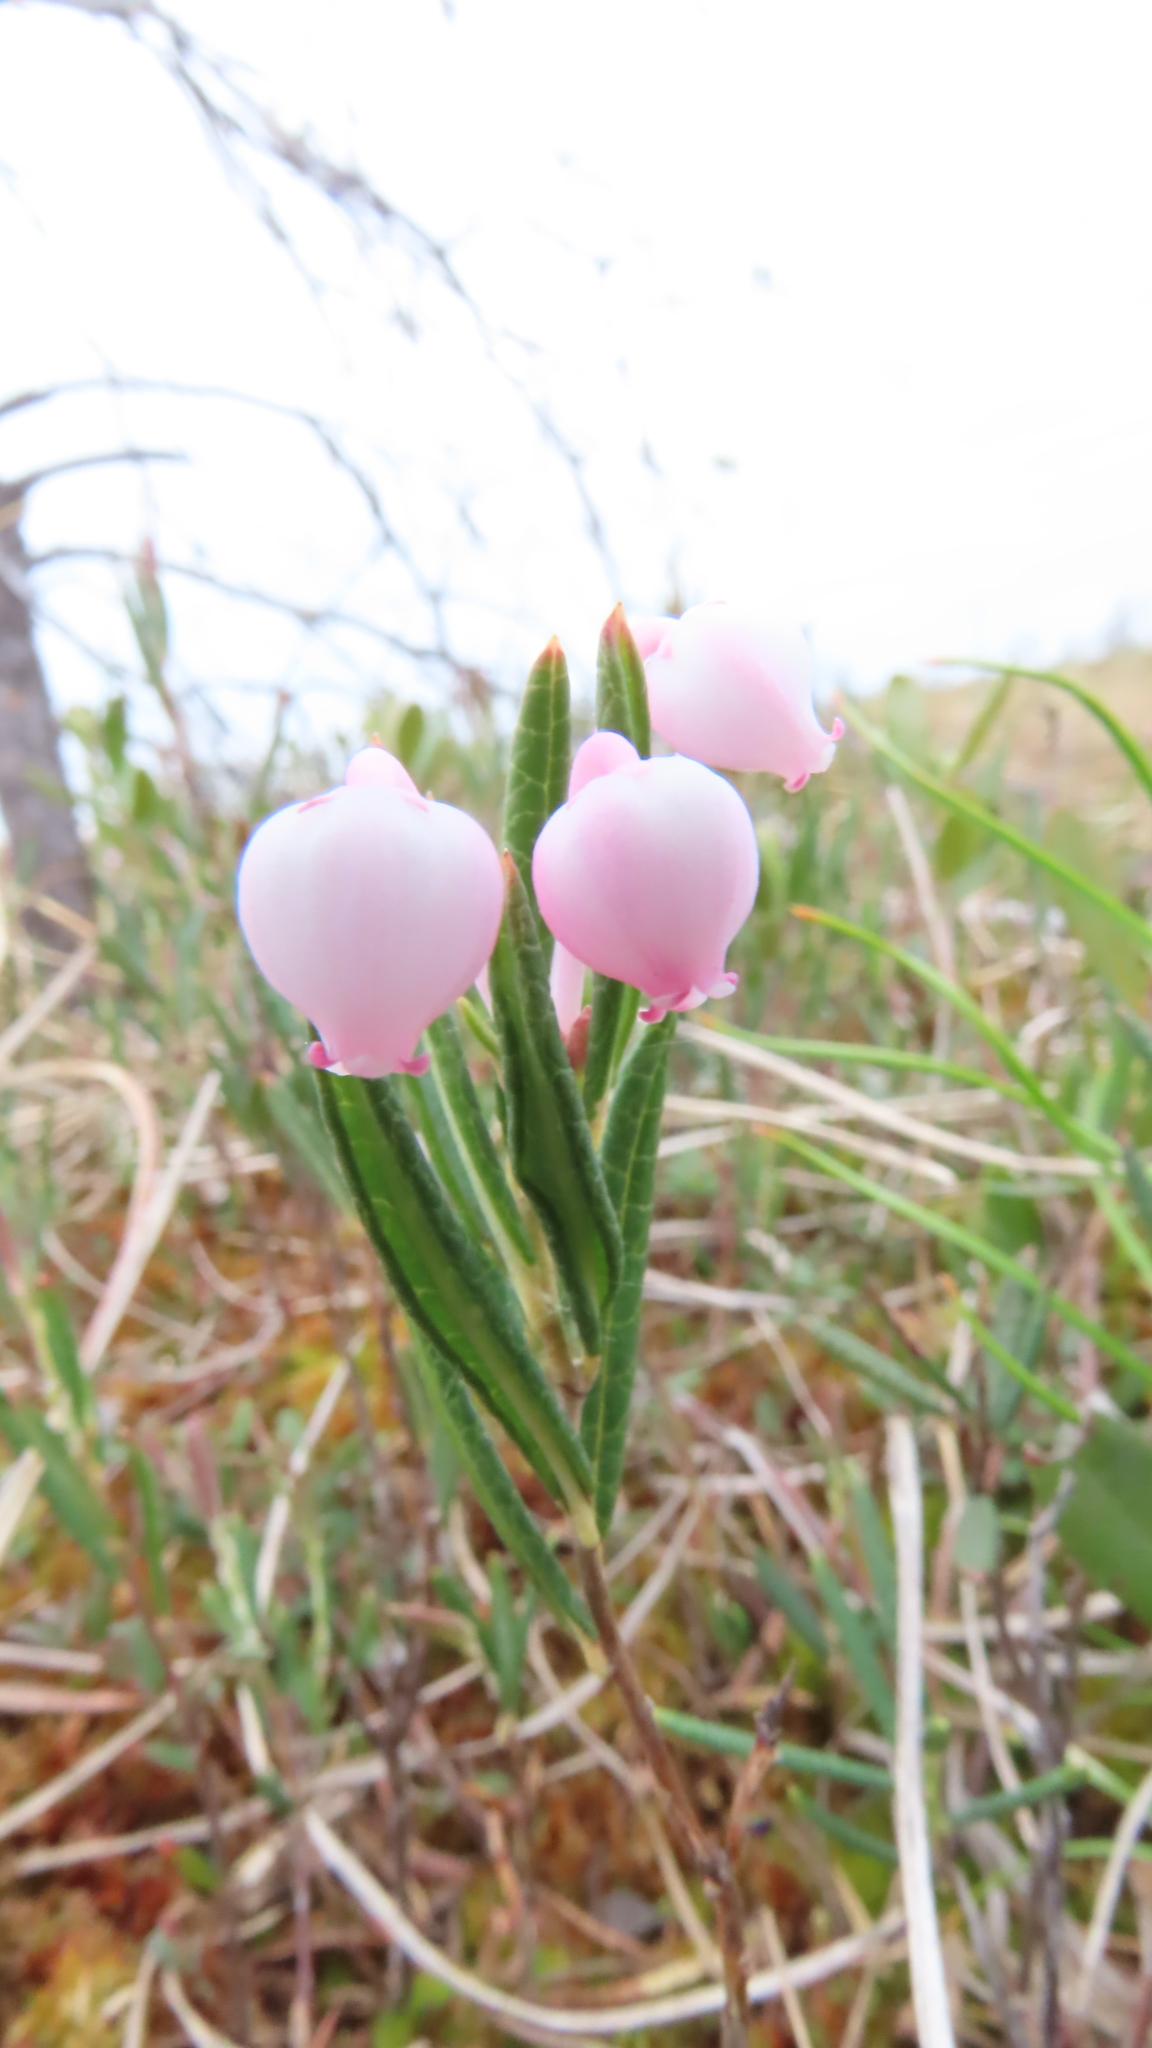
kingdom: Plantae
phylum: Tracheophyta
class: Magnoliopsida
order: Ericales
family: Ericaceae
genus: Andromeda
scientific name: Andromeda polifolia
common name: Bog-rosemary
